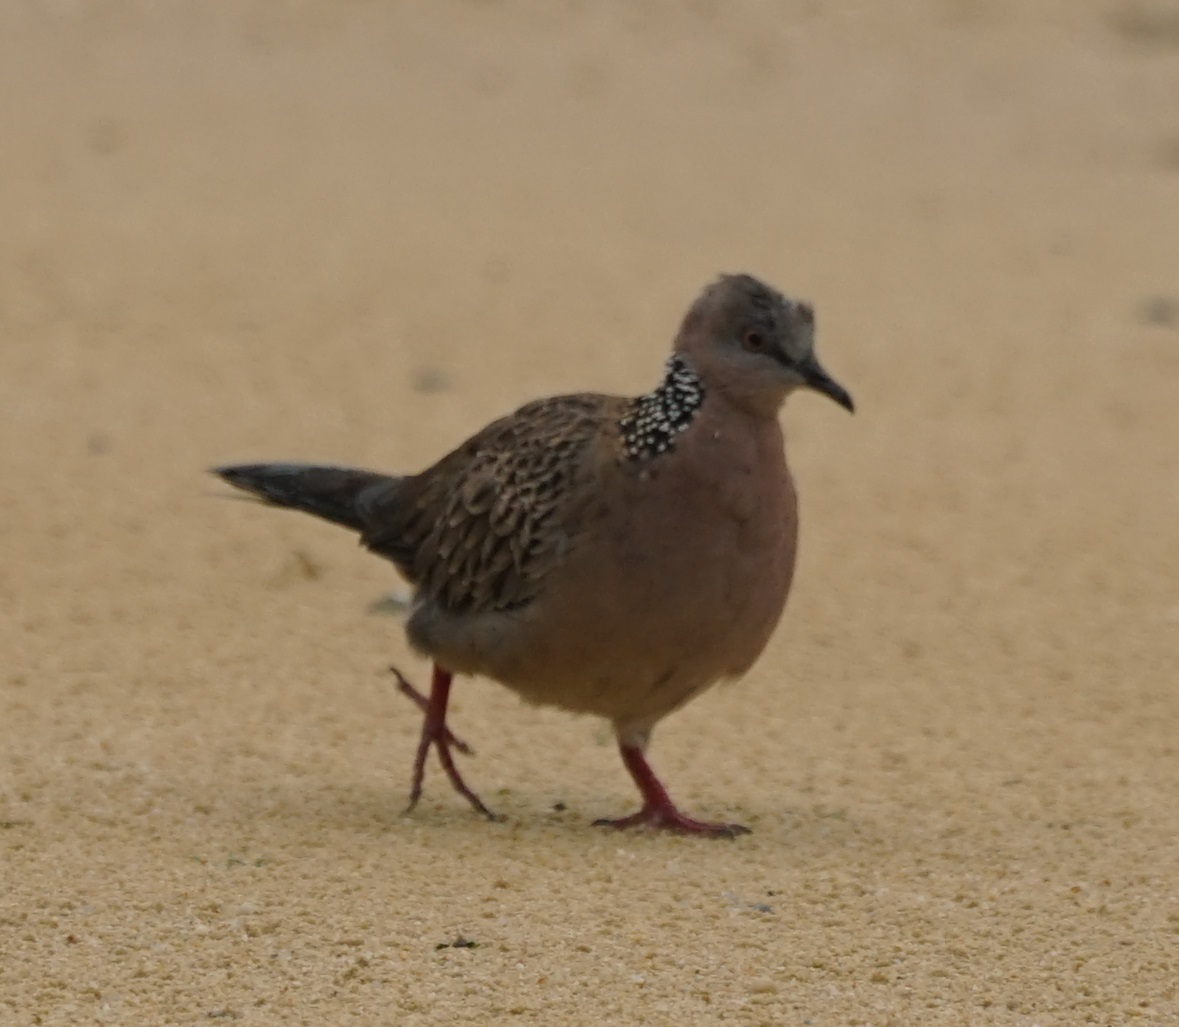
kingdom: Animalia
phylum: Chordata
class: Aves
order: Columbiformes
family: Columbidae
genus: Spilopelia
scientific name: Spilopelia chinensis
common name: Spotted dove
